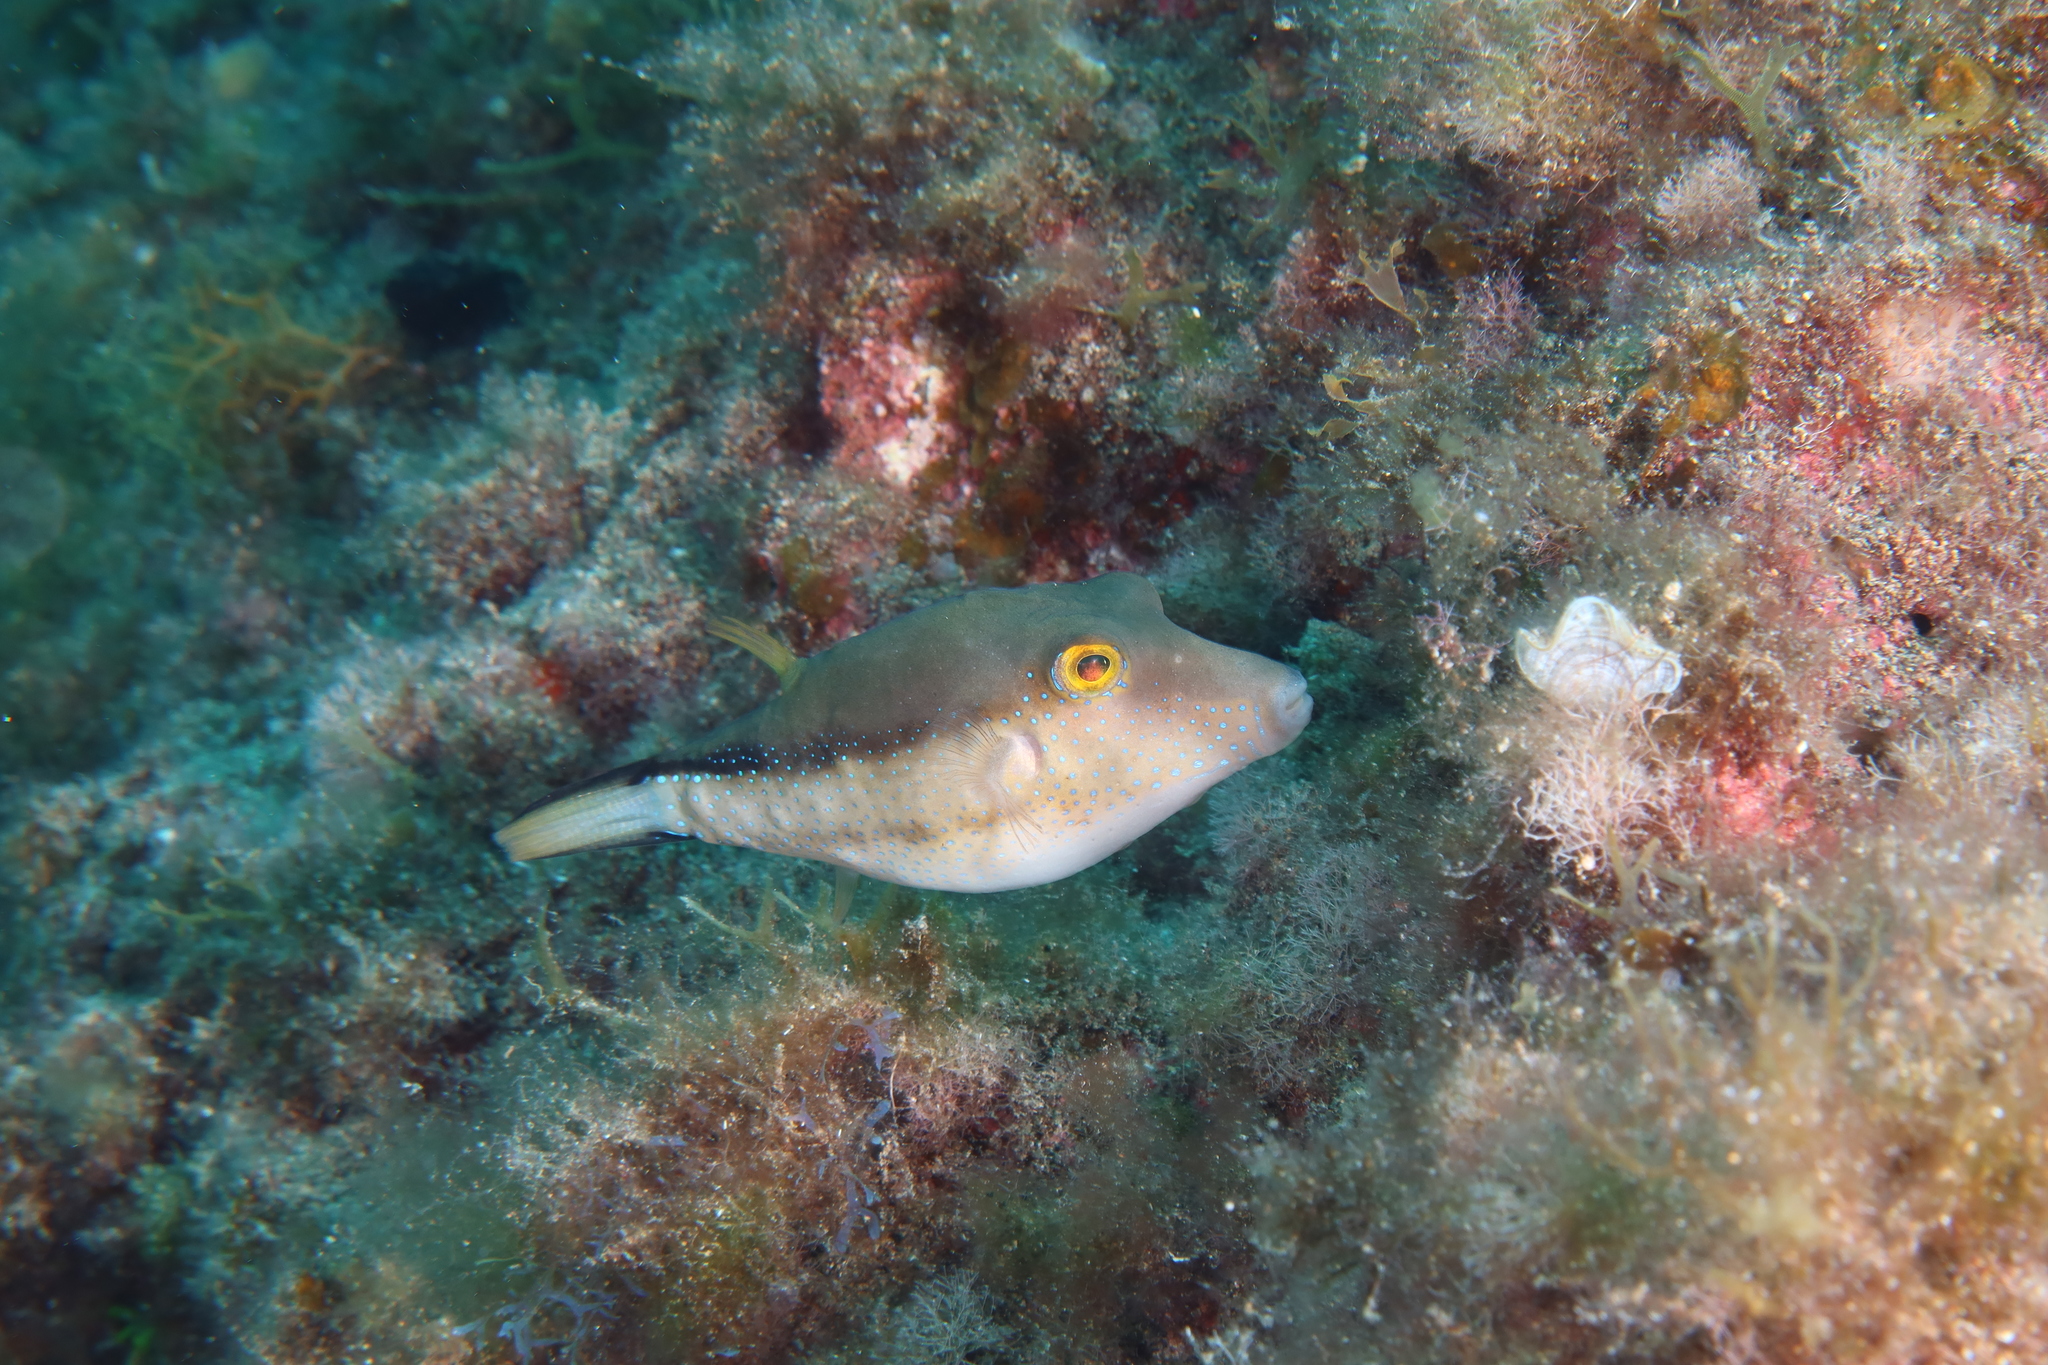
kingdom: Animalia
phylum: Chordata
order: Tetraodontiformes
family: Tetraodontidae
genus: Canthigaster
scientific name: Canthigaster capistrata
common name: Macaronesian sharpnose-puffer
